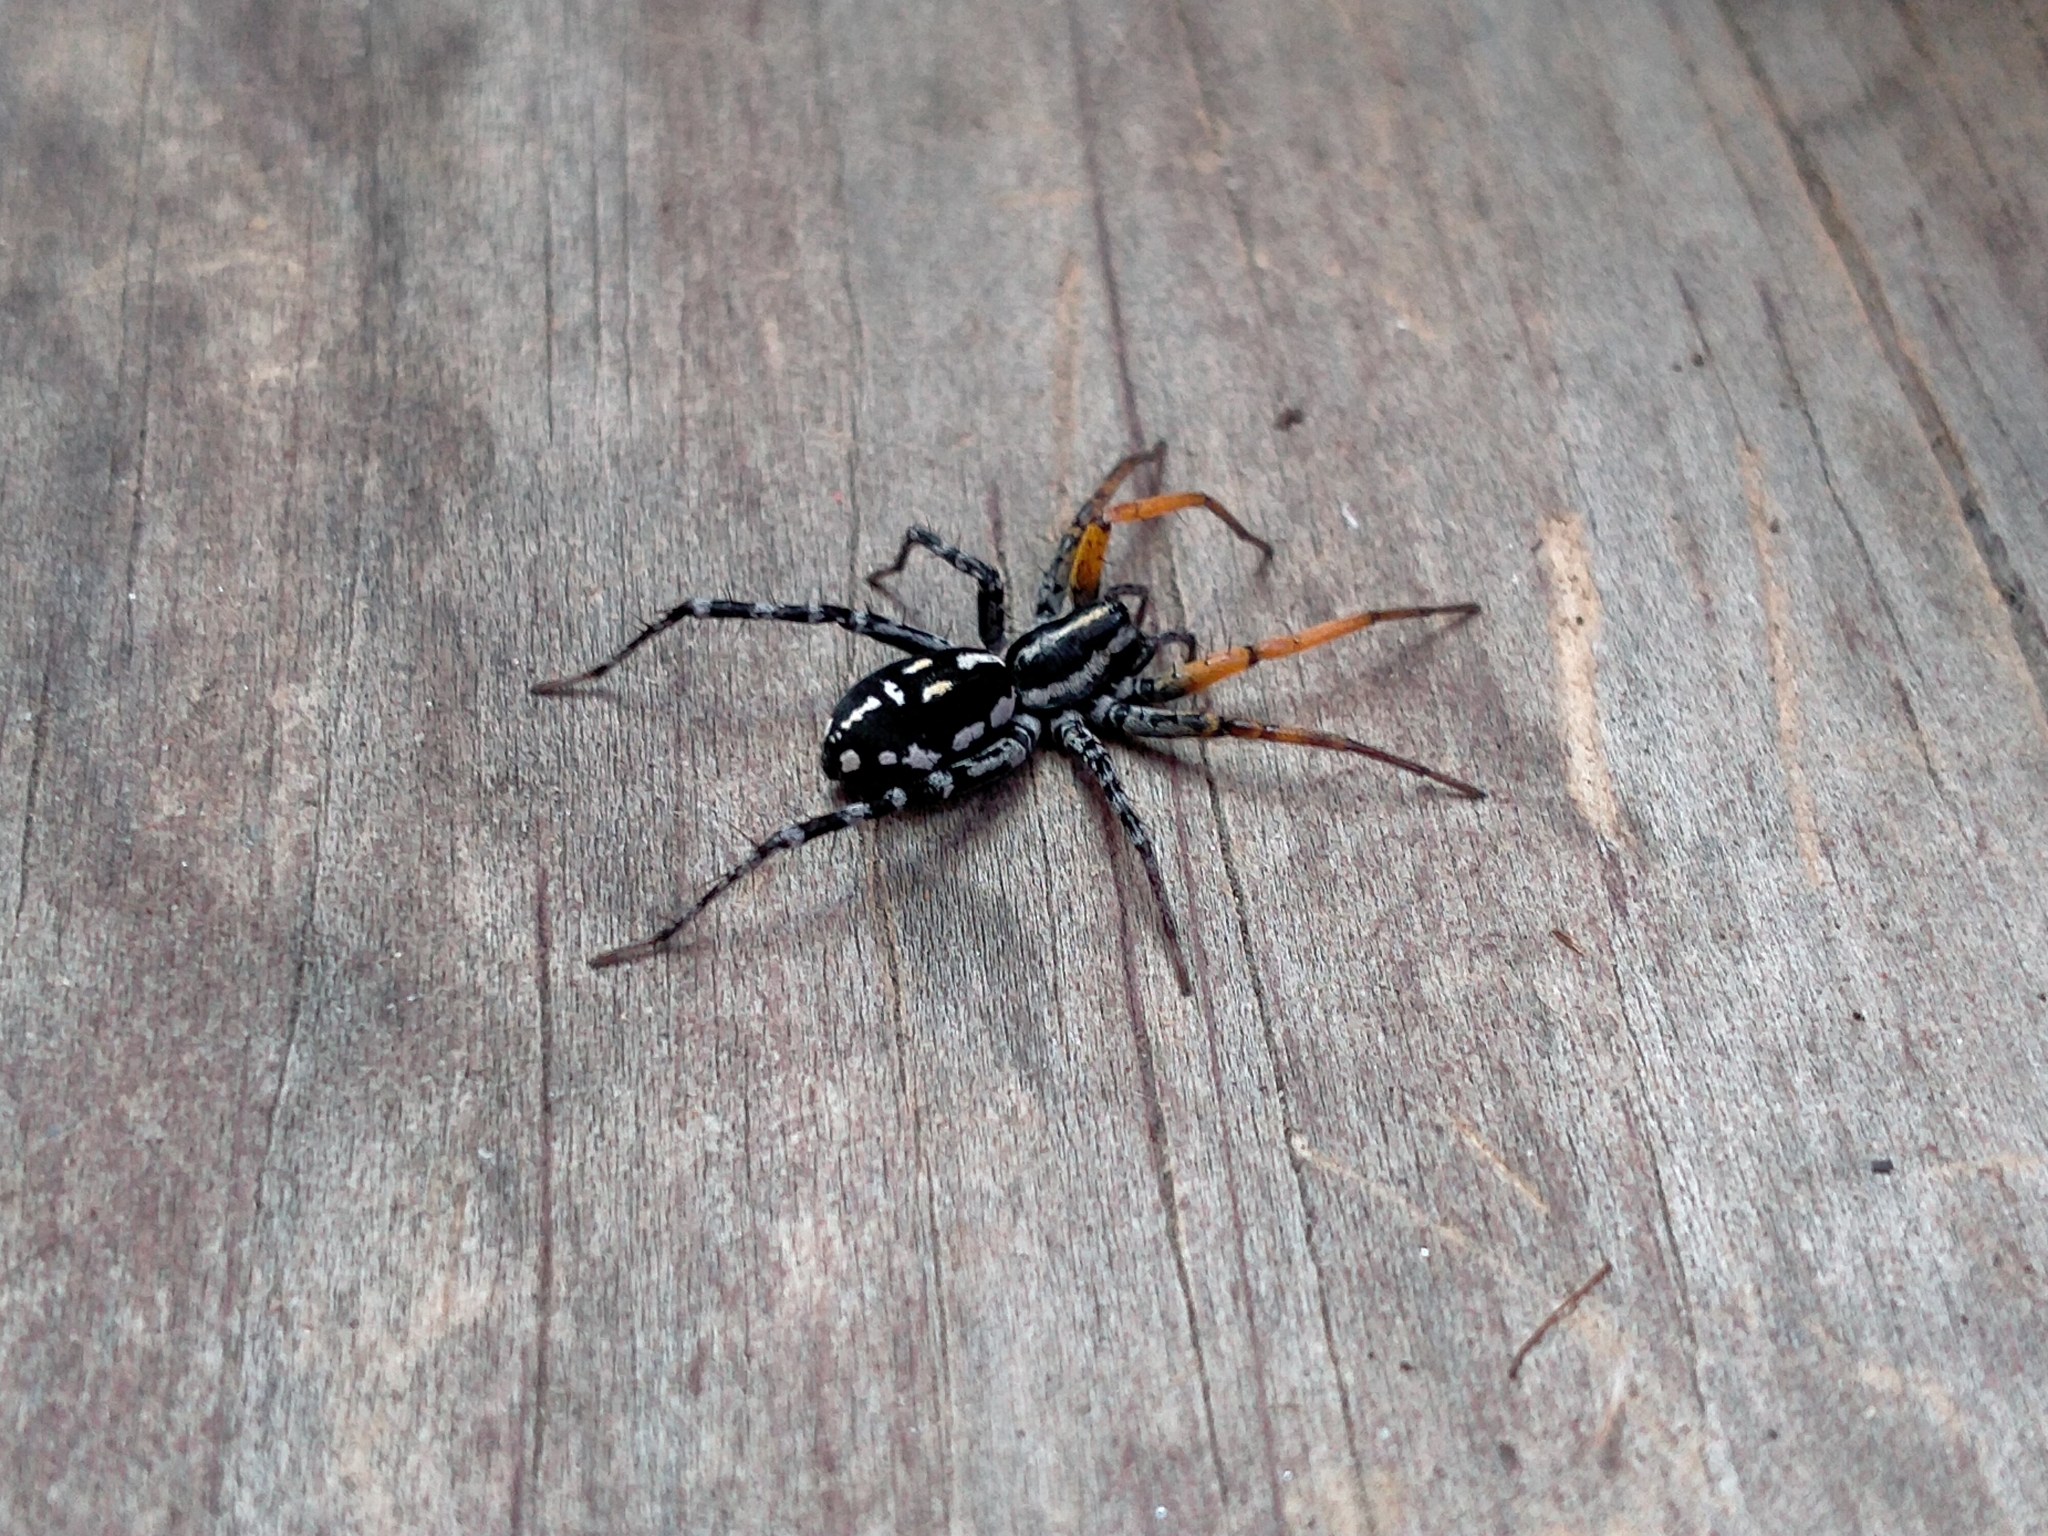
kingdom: Animalia
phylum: Arthropoda
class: Arachnida
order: Araneae
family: Corinnidae
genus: Nyssus
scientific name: Nyssus coloripes
